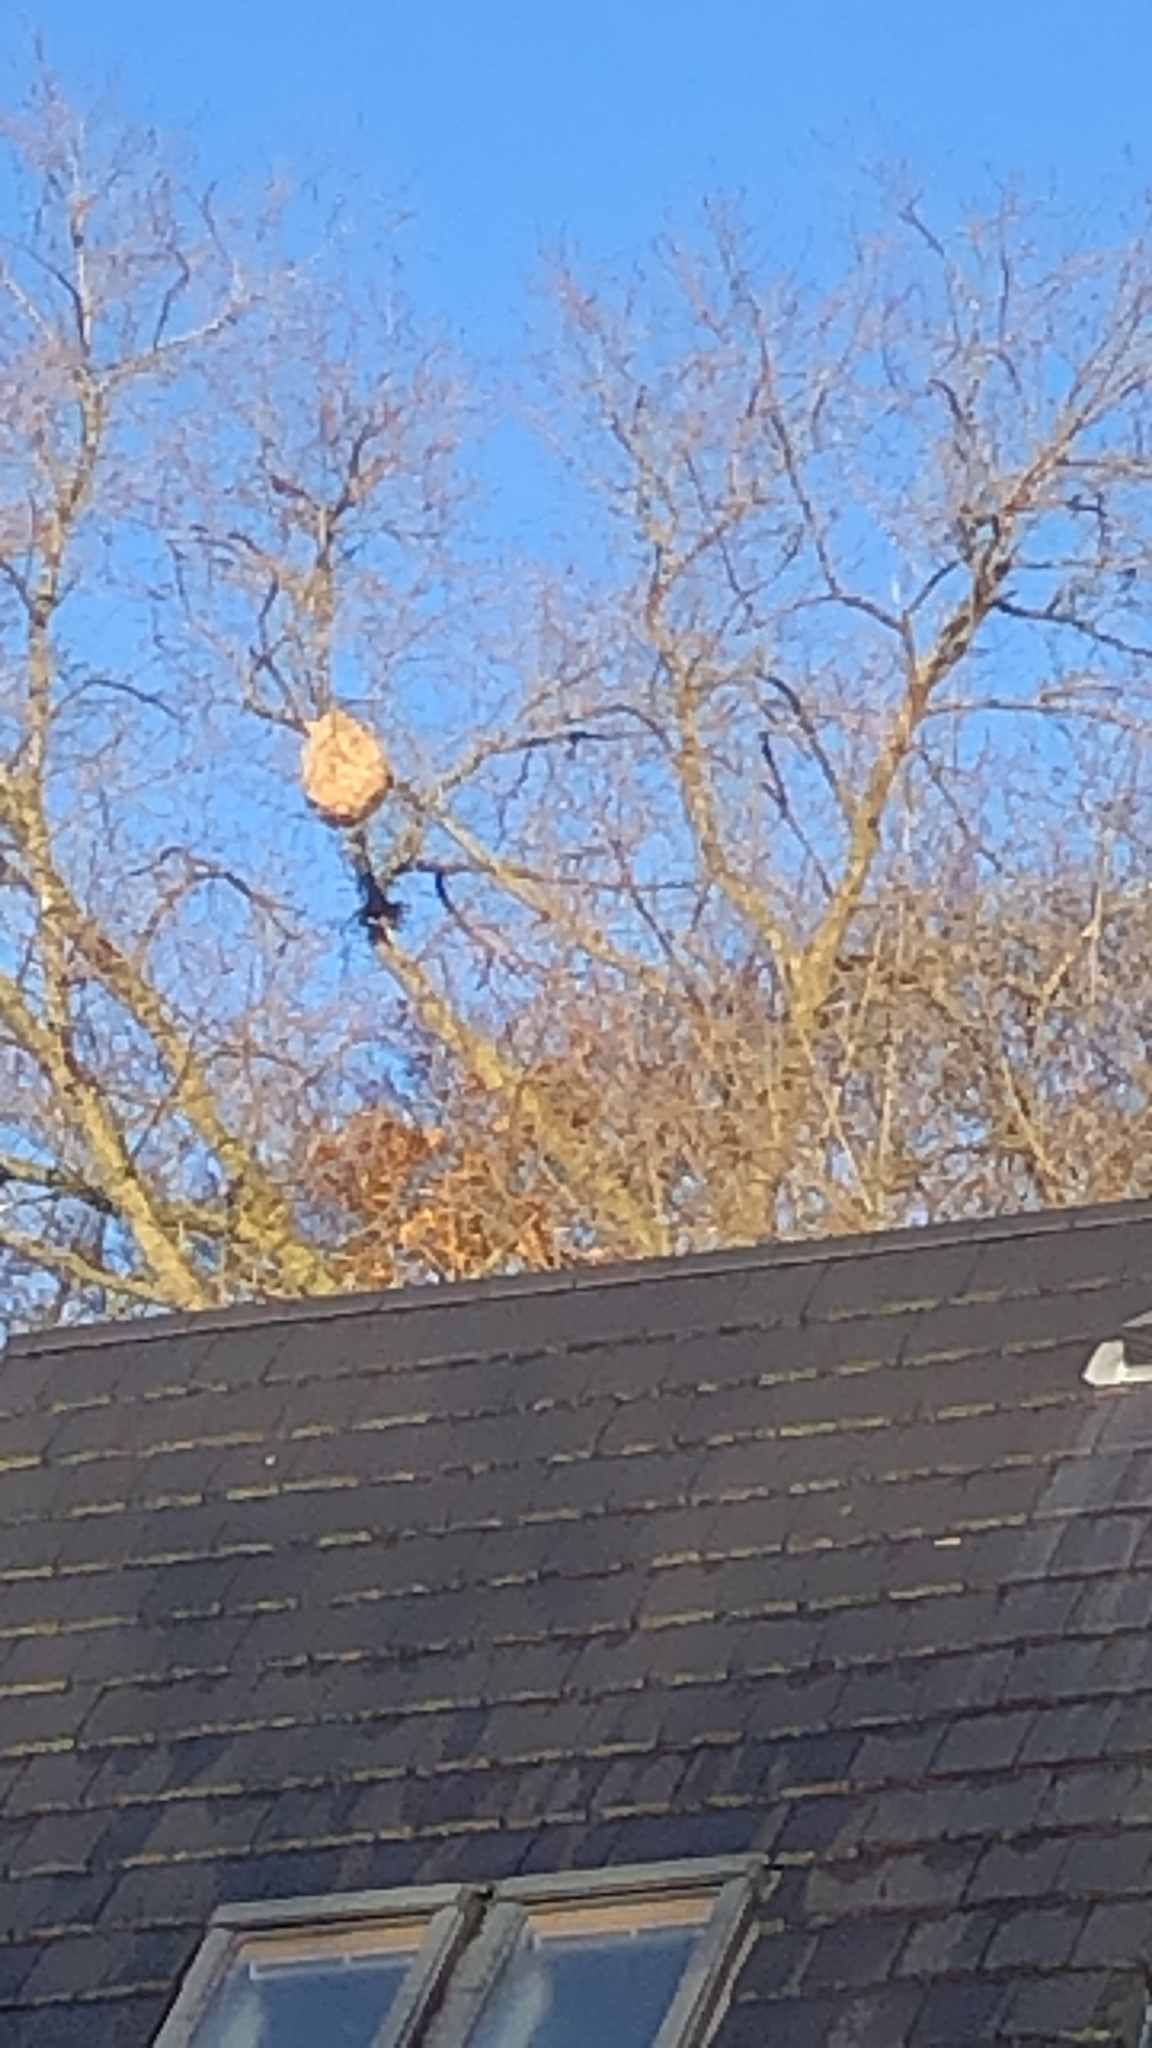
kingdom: Animalia
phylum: Arthropoda
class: Insecta
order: Hymenoptera
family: Vespidae
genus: Vespa
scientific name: Vespa velutina
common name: Asian hornet
